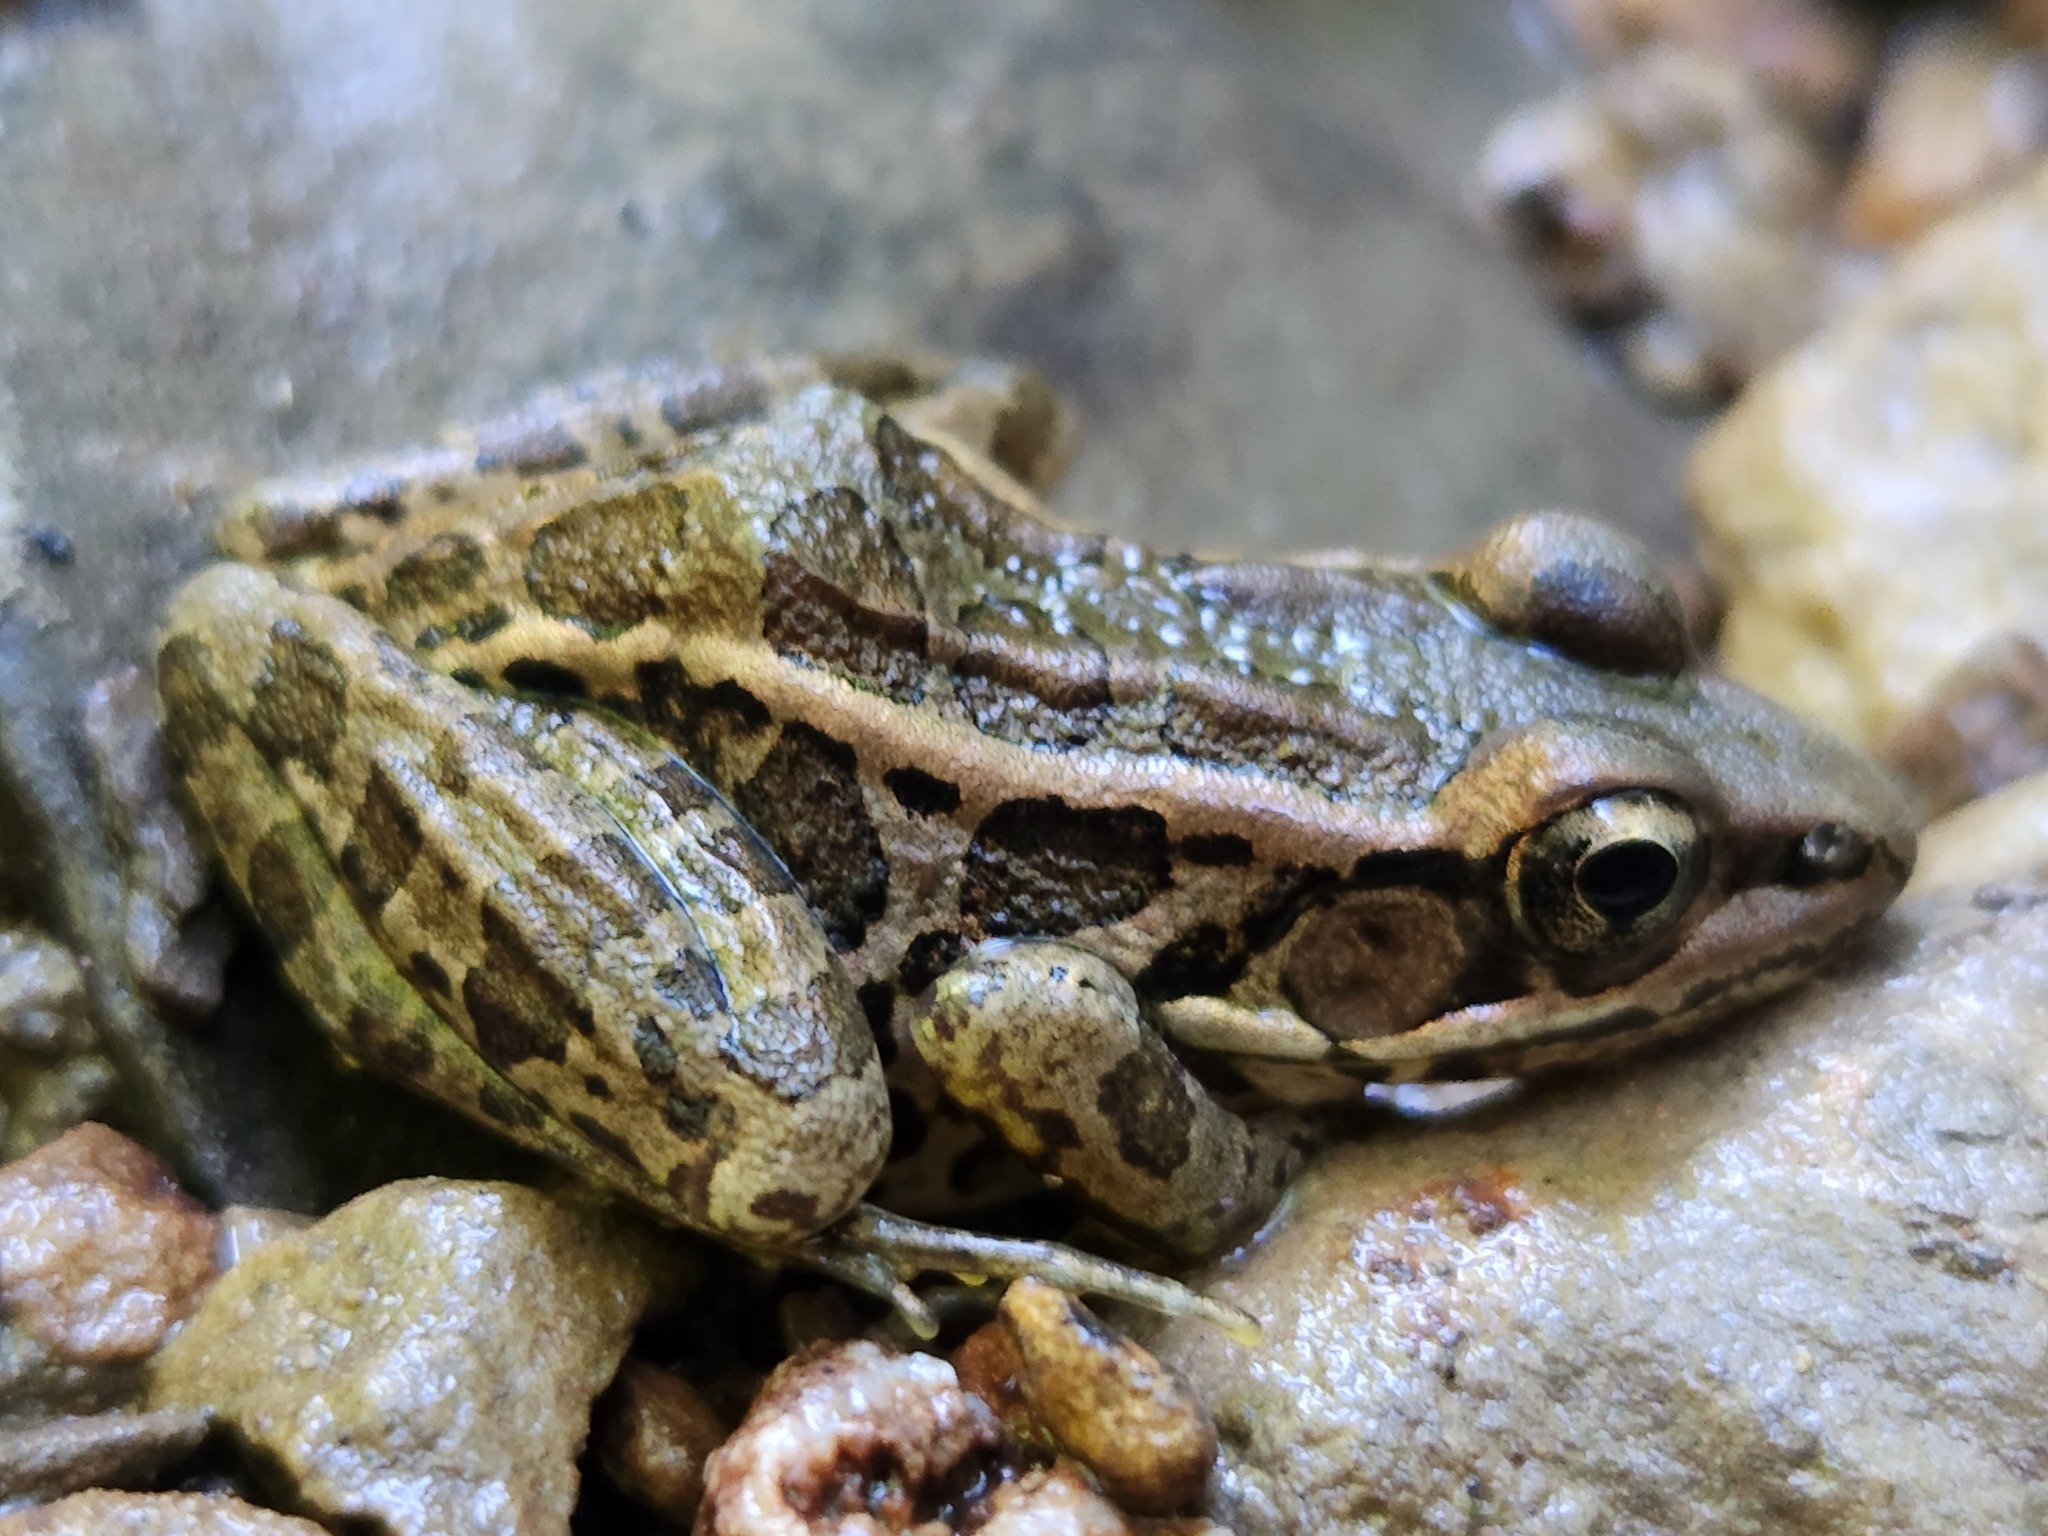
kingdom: Animalia
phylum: Chordata
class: Amphibia
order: Anura
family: Ranidae
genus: Lithobates
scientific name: Lithobates palustris
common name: Pickerel frog
